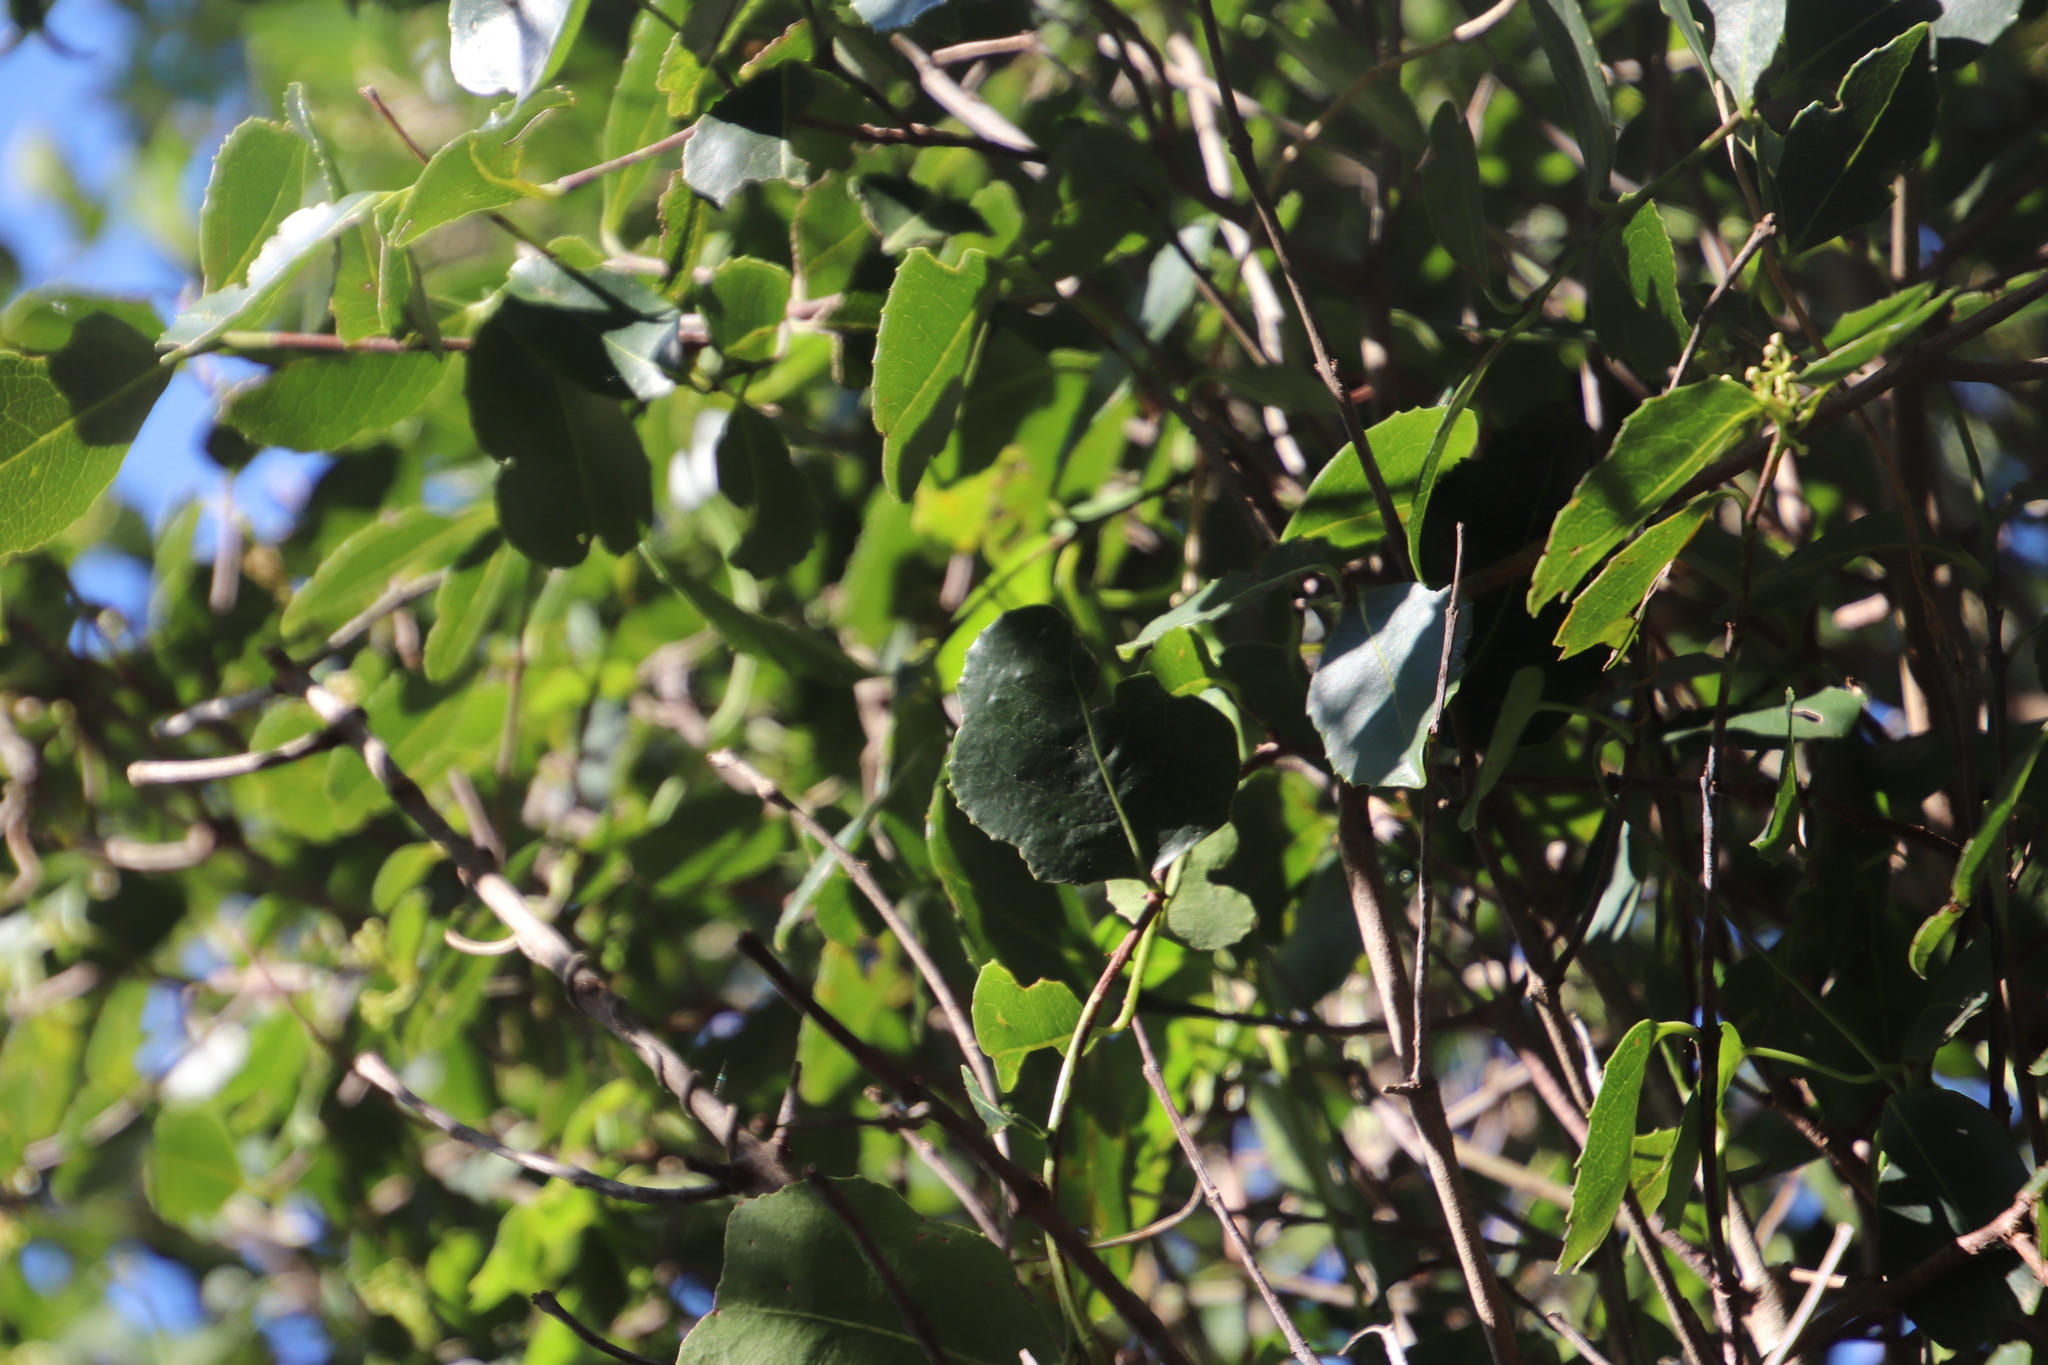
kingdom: Plantae
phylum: Tracheophyta
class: Magnoliopsida
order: Lamiales
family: Oleaceae
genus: Olea
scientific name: Olea capensis
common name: Black ironwood
